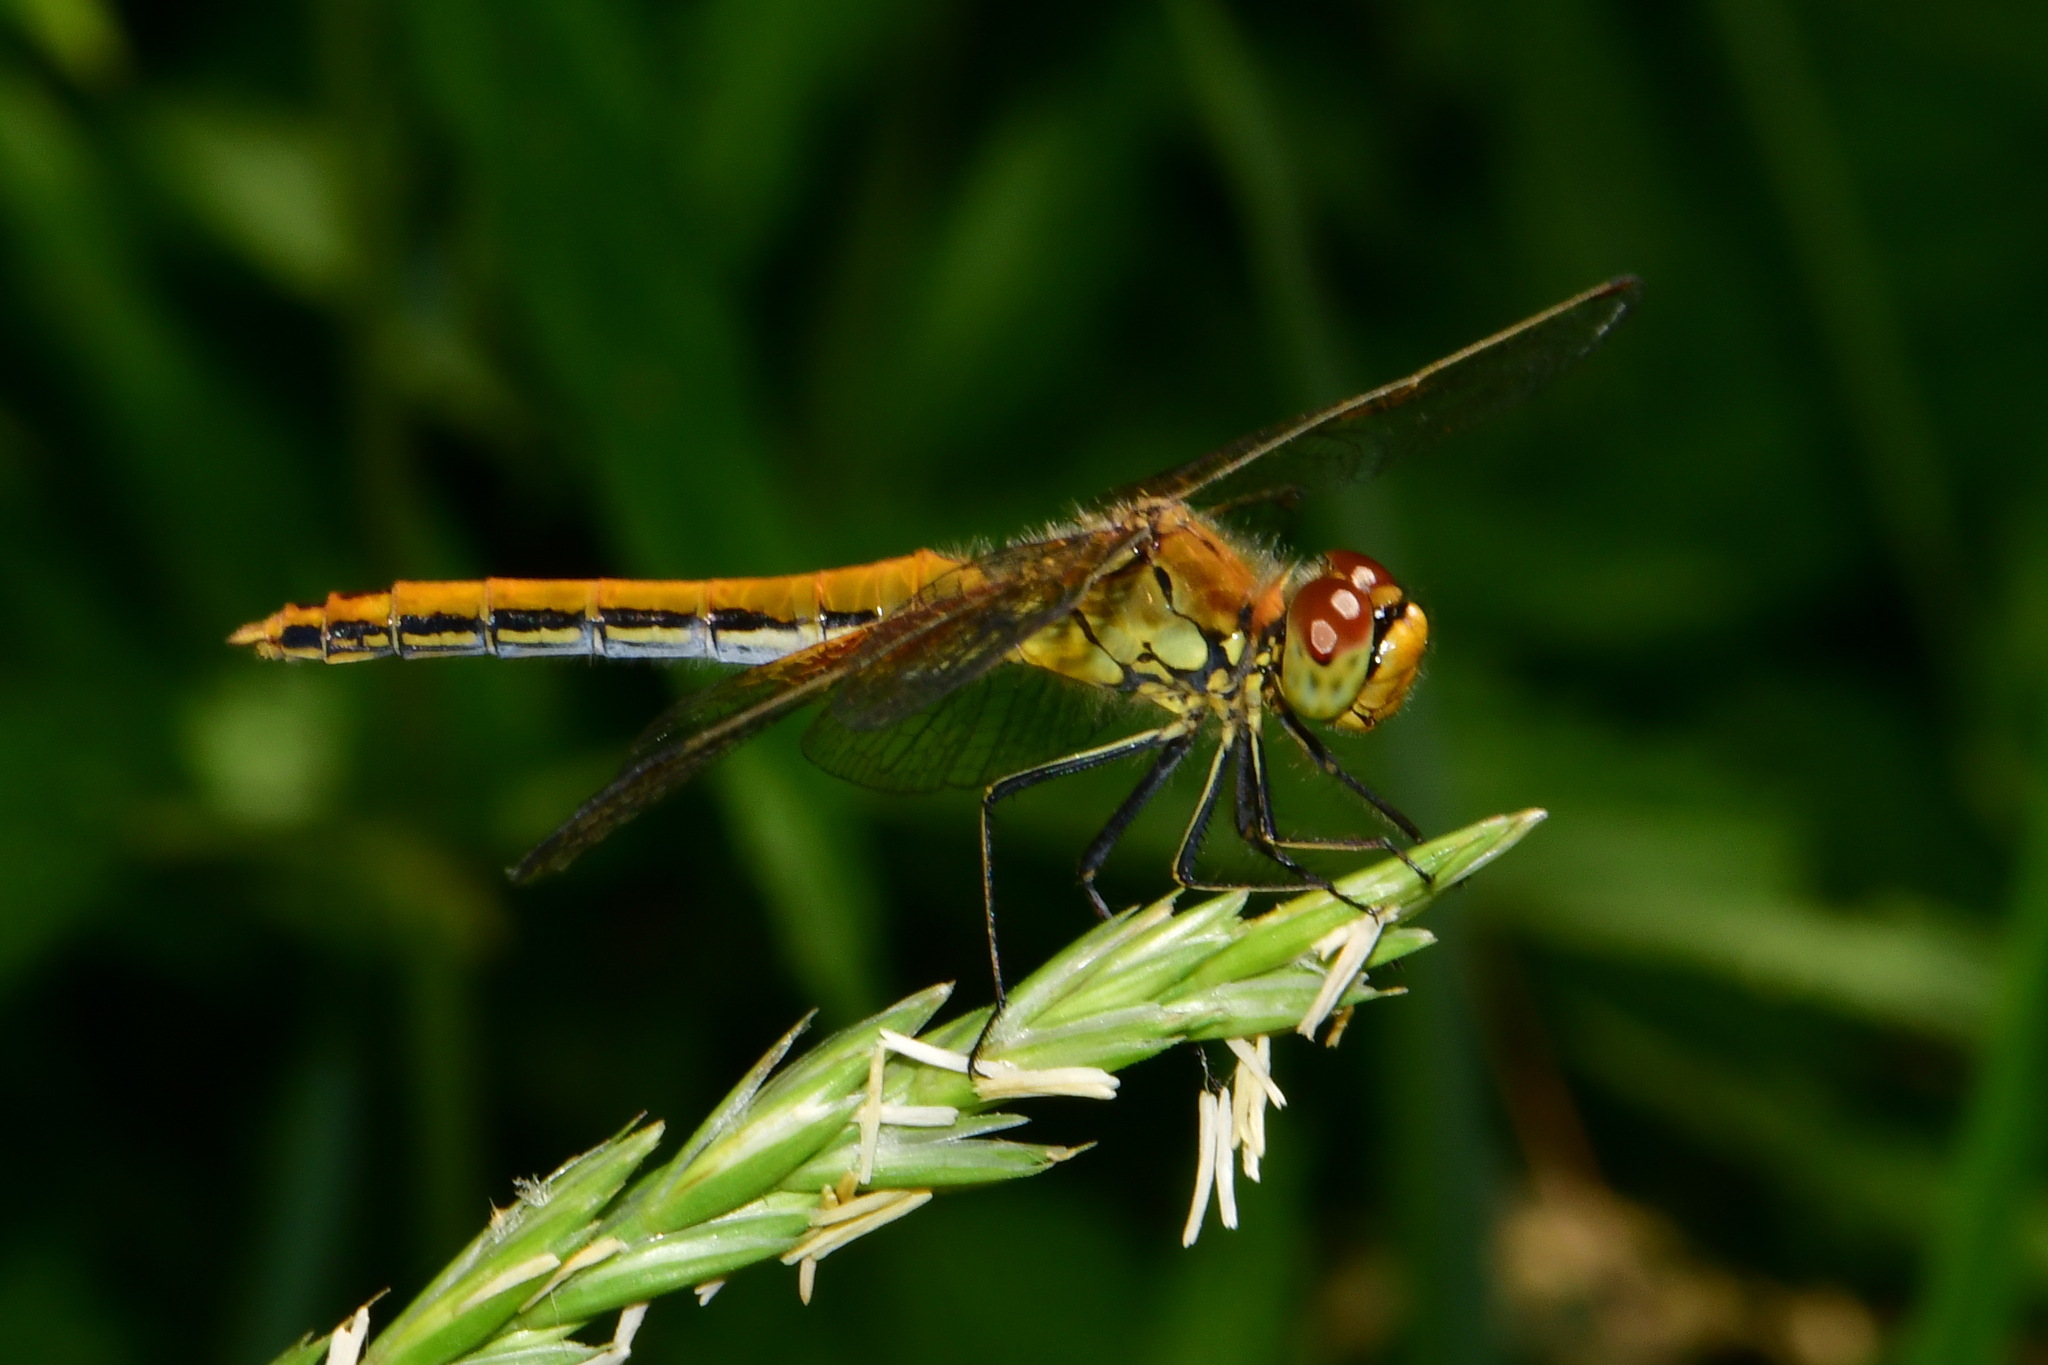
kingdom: Animalia
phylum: Arthropoda
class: Insecta
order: Odonata
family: Libellulidae
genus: Sympetrum
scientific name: Sympetrum flaveolum
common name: Yellow-winged darter
